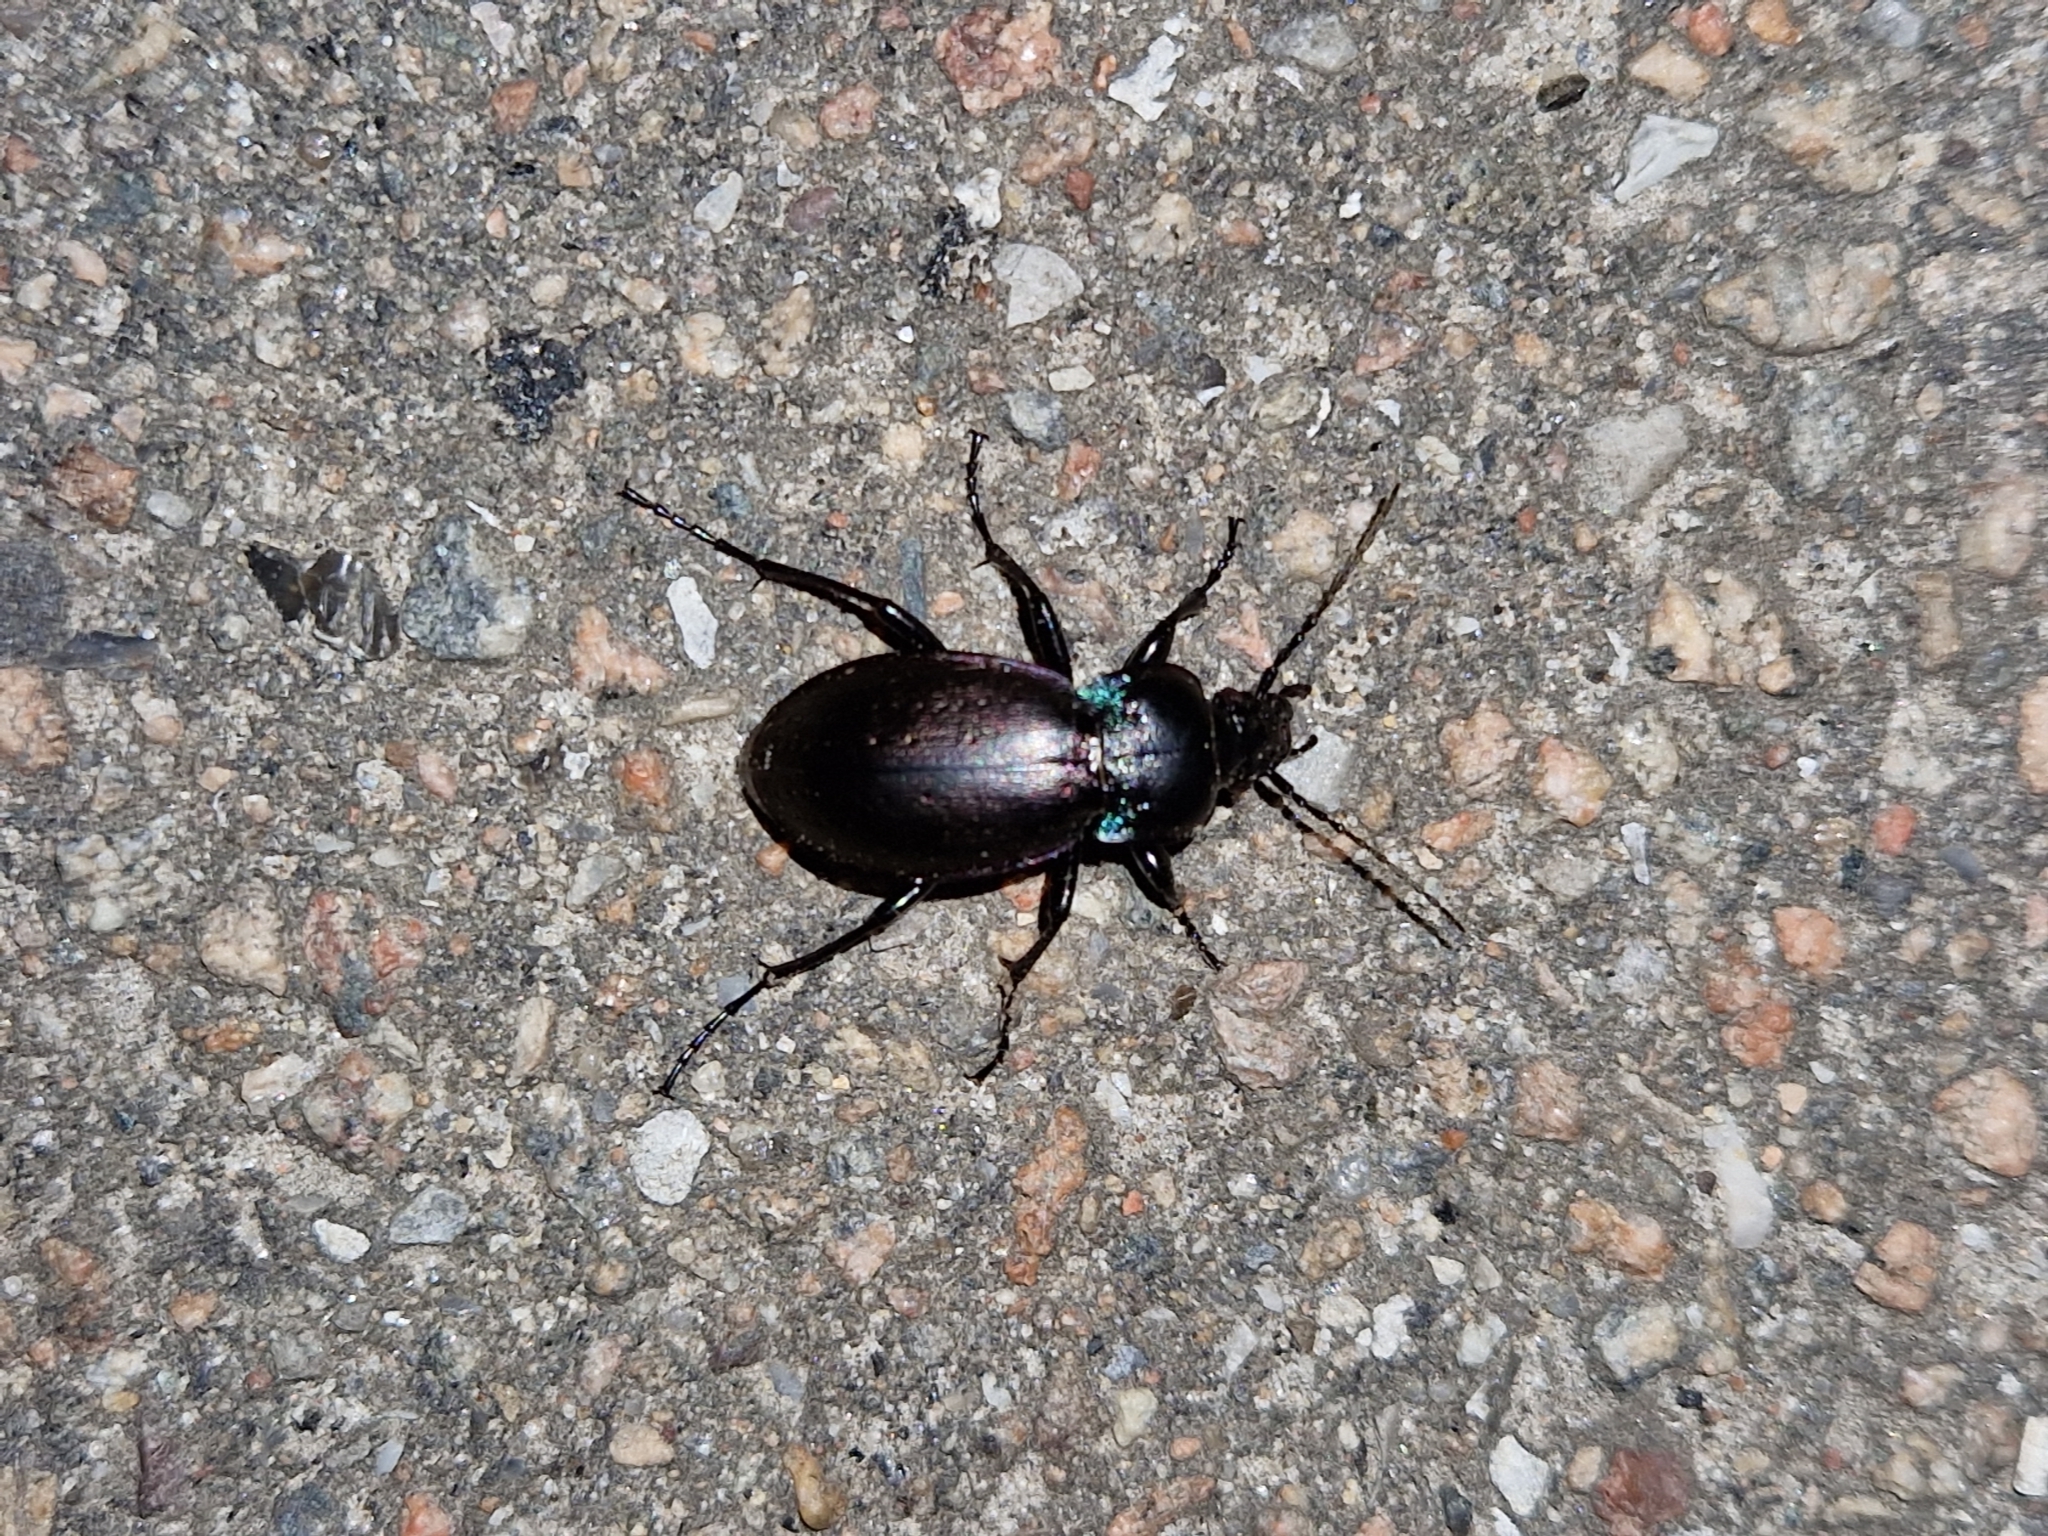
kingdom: Animalia
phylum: Arthropoda
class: Insecta
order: Coleoptera
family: Carabidae
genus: Carabus
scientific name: Carabus nemoralis
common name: European ground beetle
